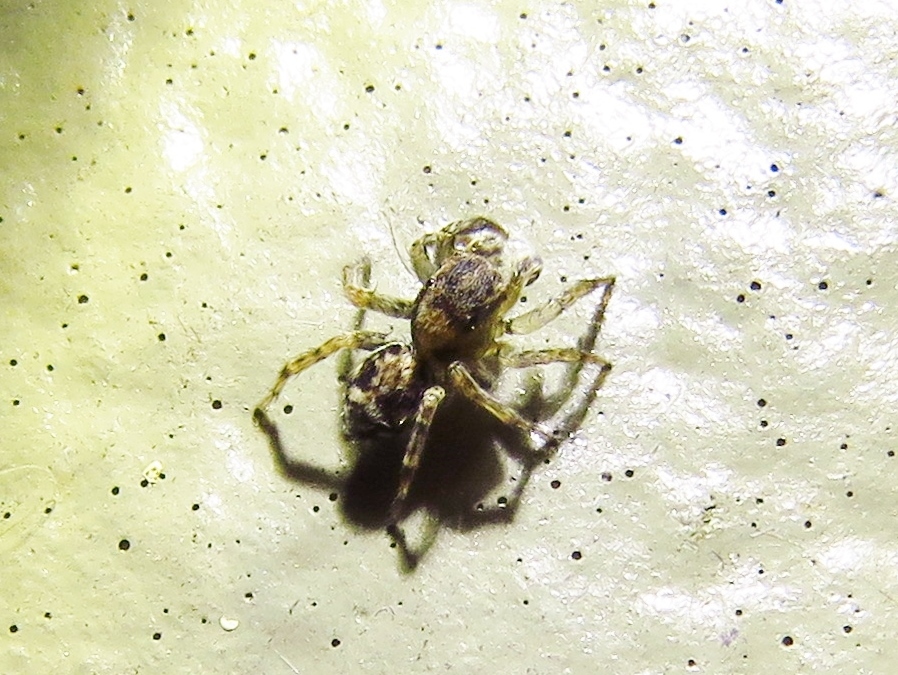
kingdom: Animalia
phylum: Arthropoda
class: Arachnida
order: Araneae
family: Salticidae
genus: Naphrys
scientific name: Naphrys pulex
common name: Flea jumping spider
